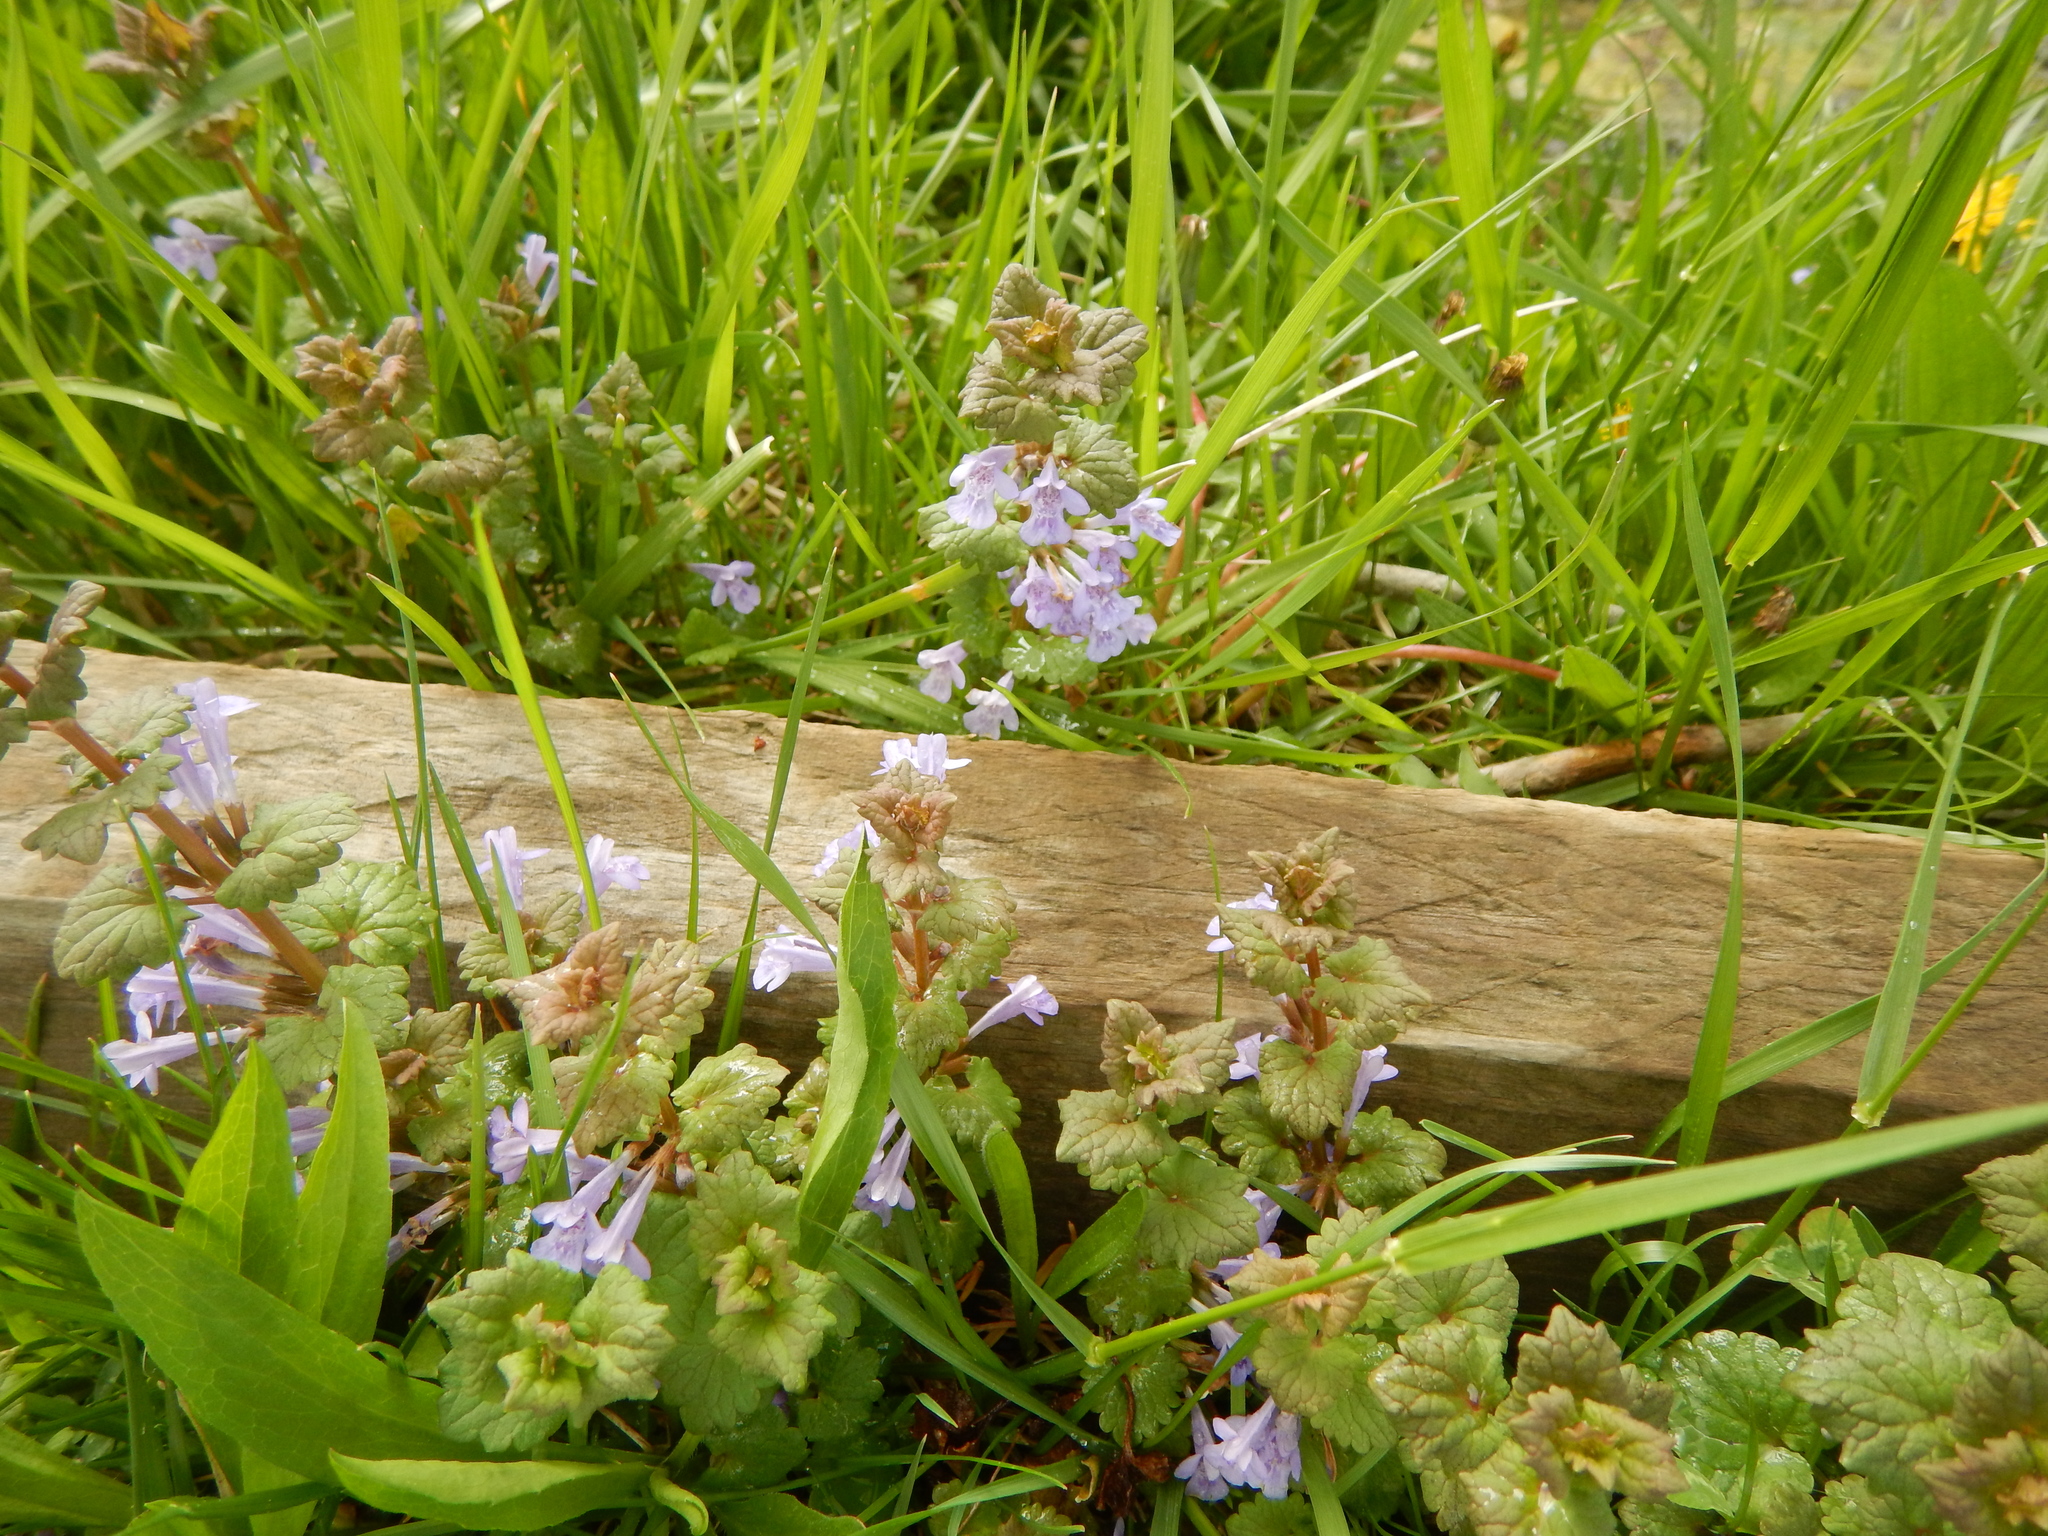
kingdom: Plantae
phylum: Tracheophyta
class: Magnoliopsida
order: Lamiales
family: Lamiaceae
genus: Glechoma
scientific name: Glechoma hederacea
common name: Ground ivy
